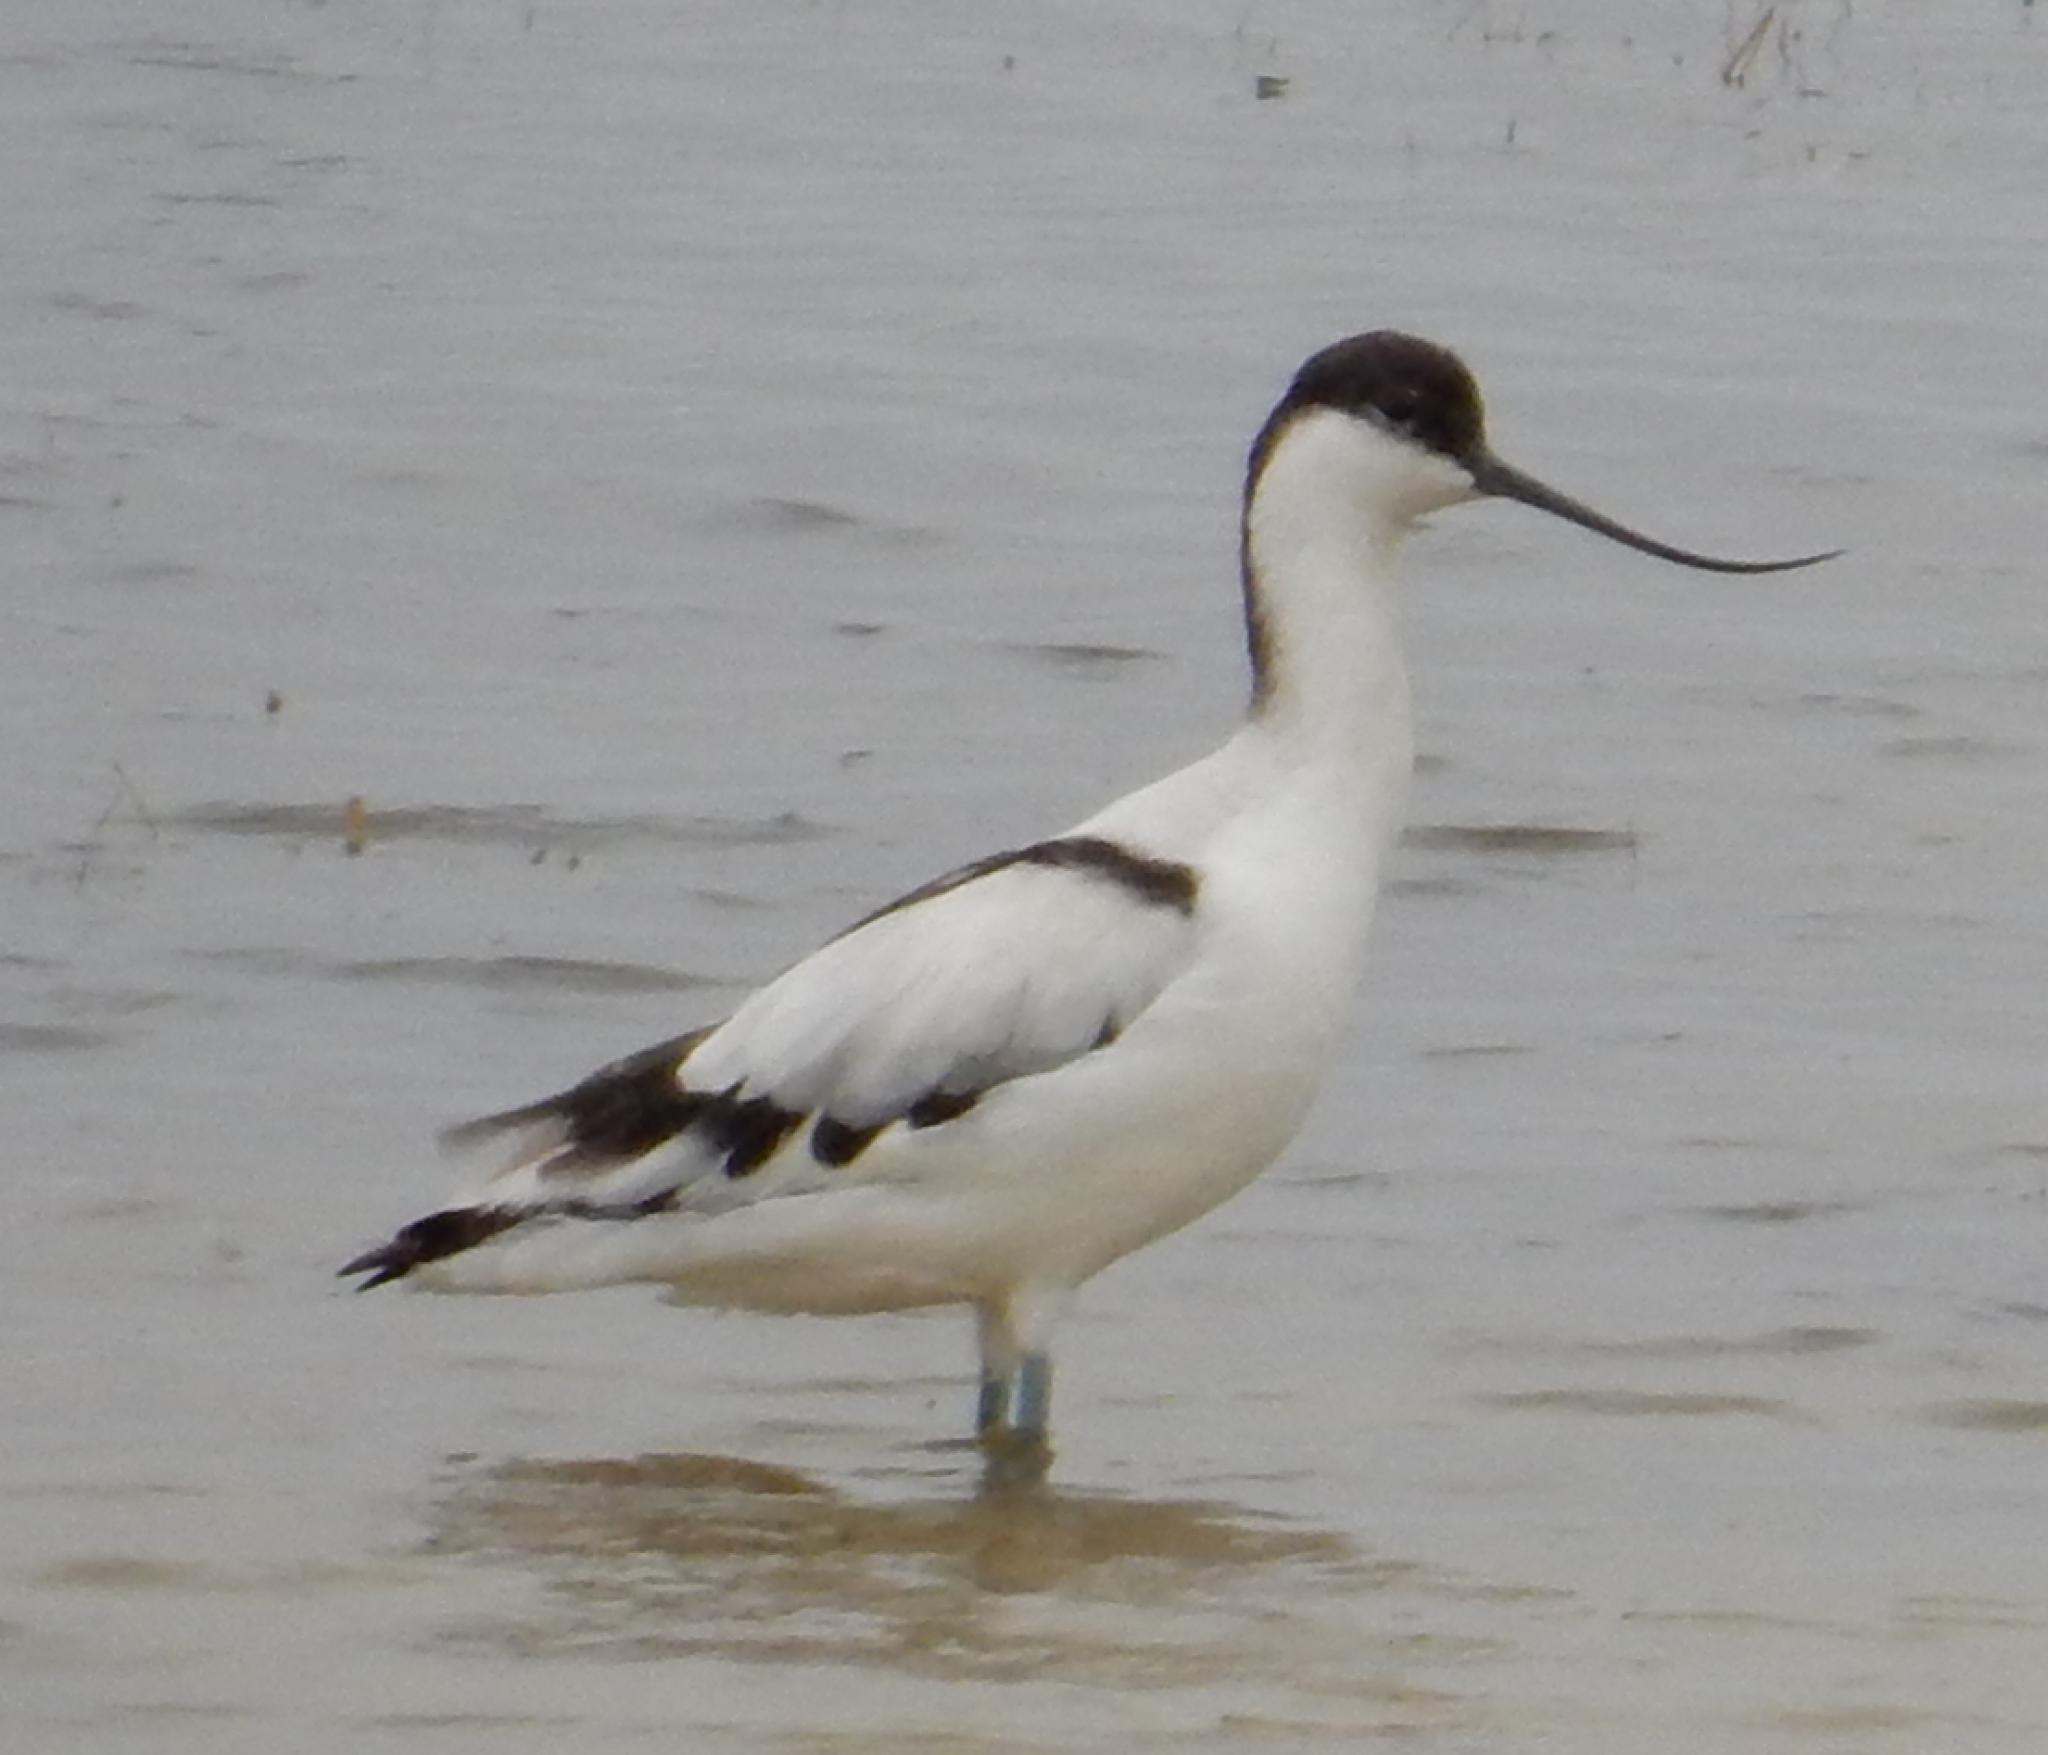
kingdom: Animalia
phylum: Chordata
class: Aves
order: Charadriiformes
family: Recurvirostridae
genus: Recurvirostra
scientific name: Recurvirostra avosetta
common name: Pied avocet
